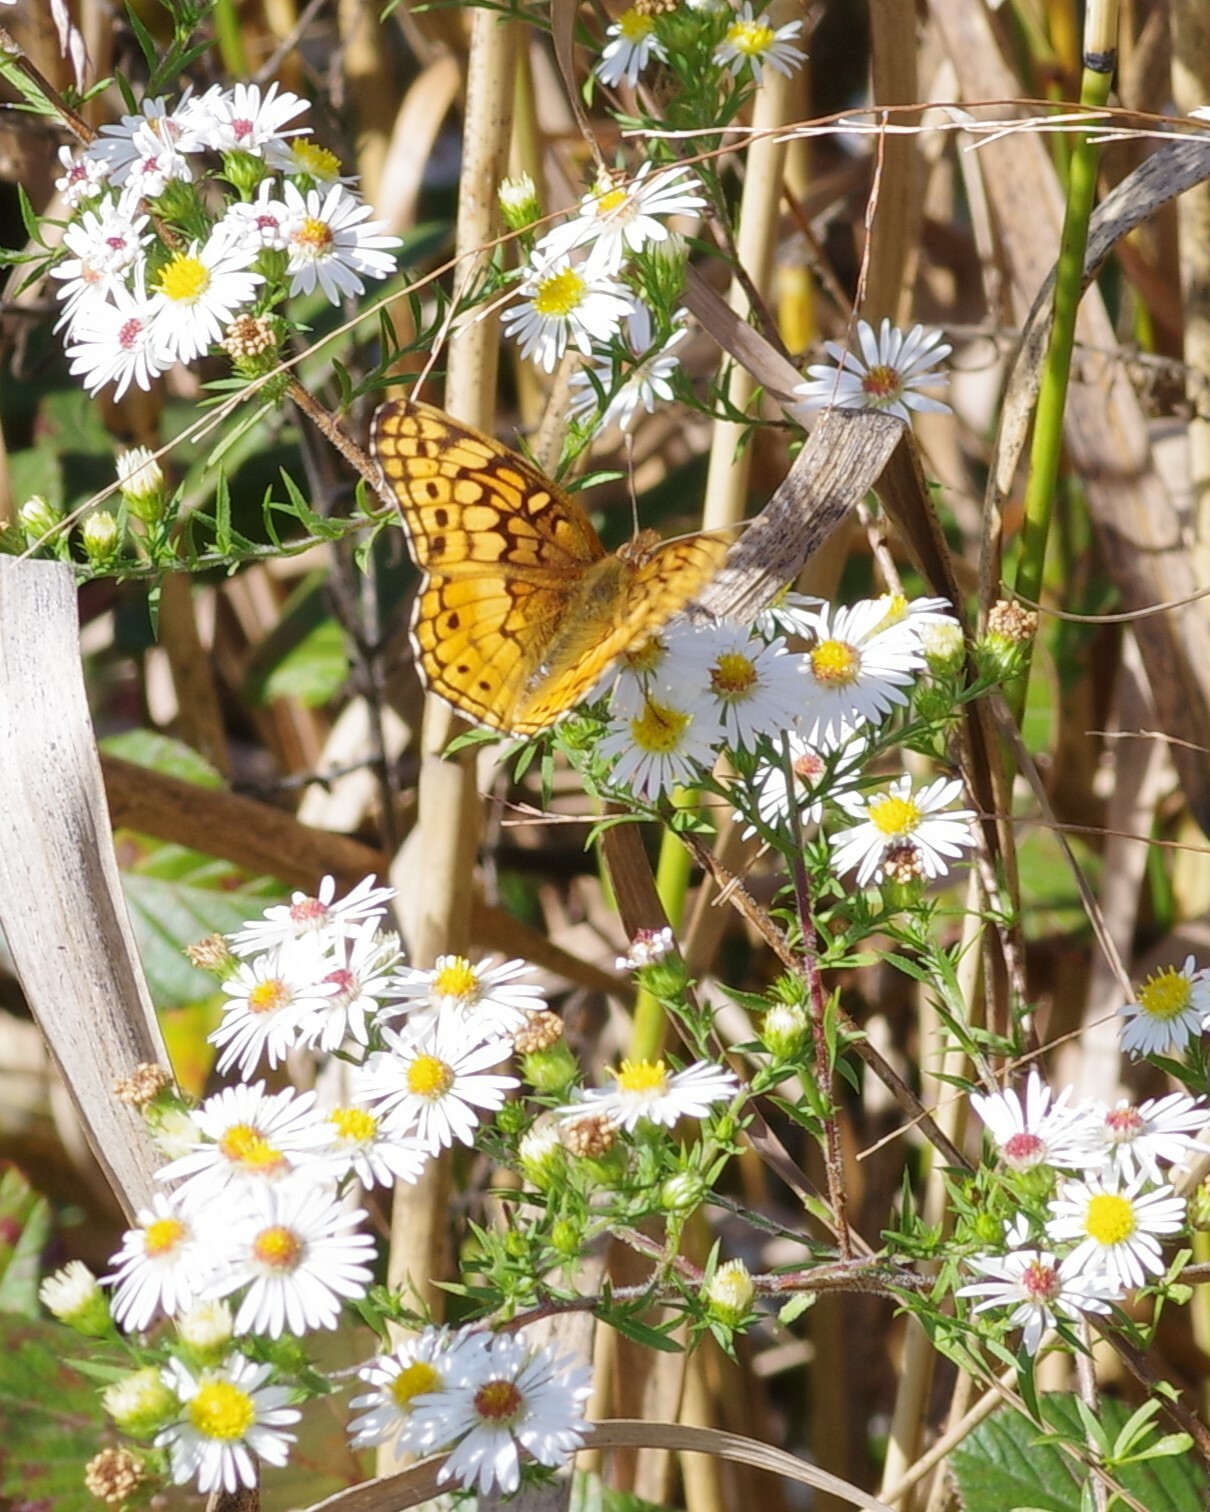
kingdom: Animalia
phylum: Arthropoda
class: Insecta
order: Lepidoptera
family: Nymphalidae
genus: Euptoieta
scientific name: Euptoieta claudia
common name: Variegated fritillary
